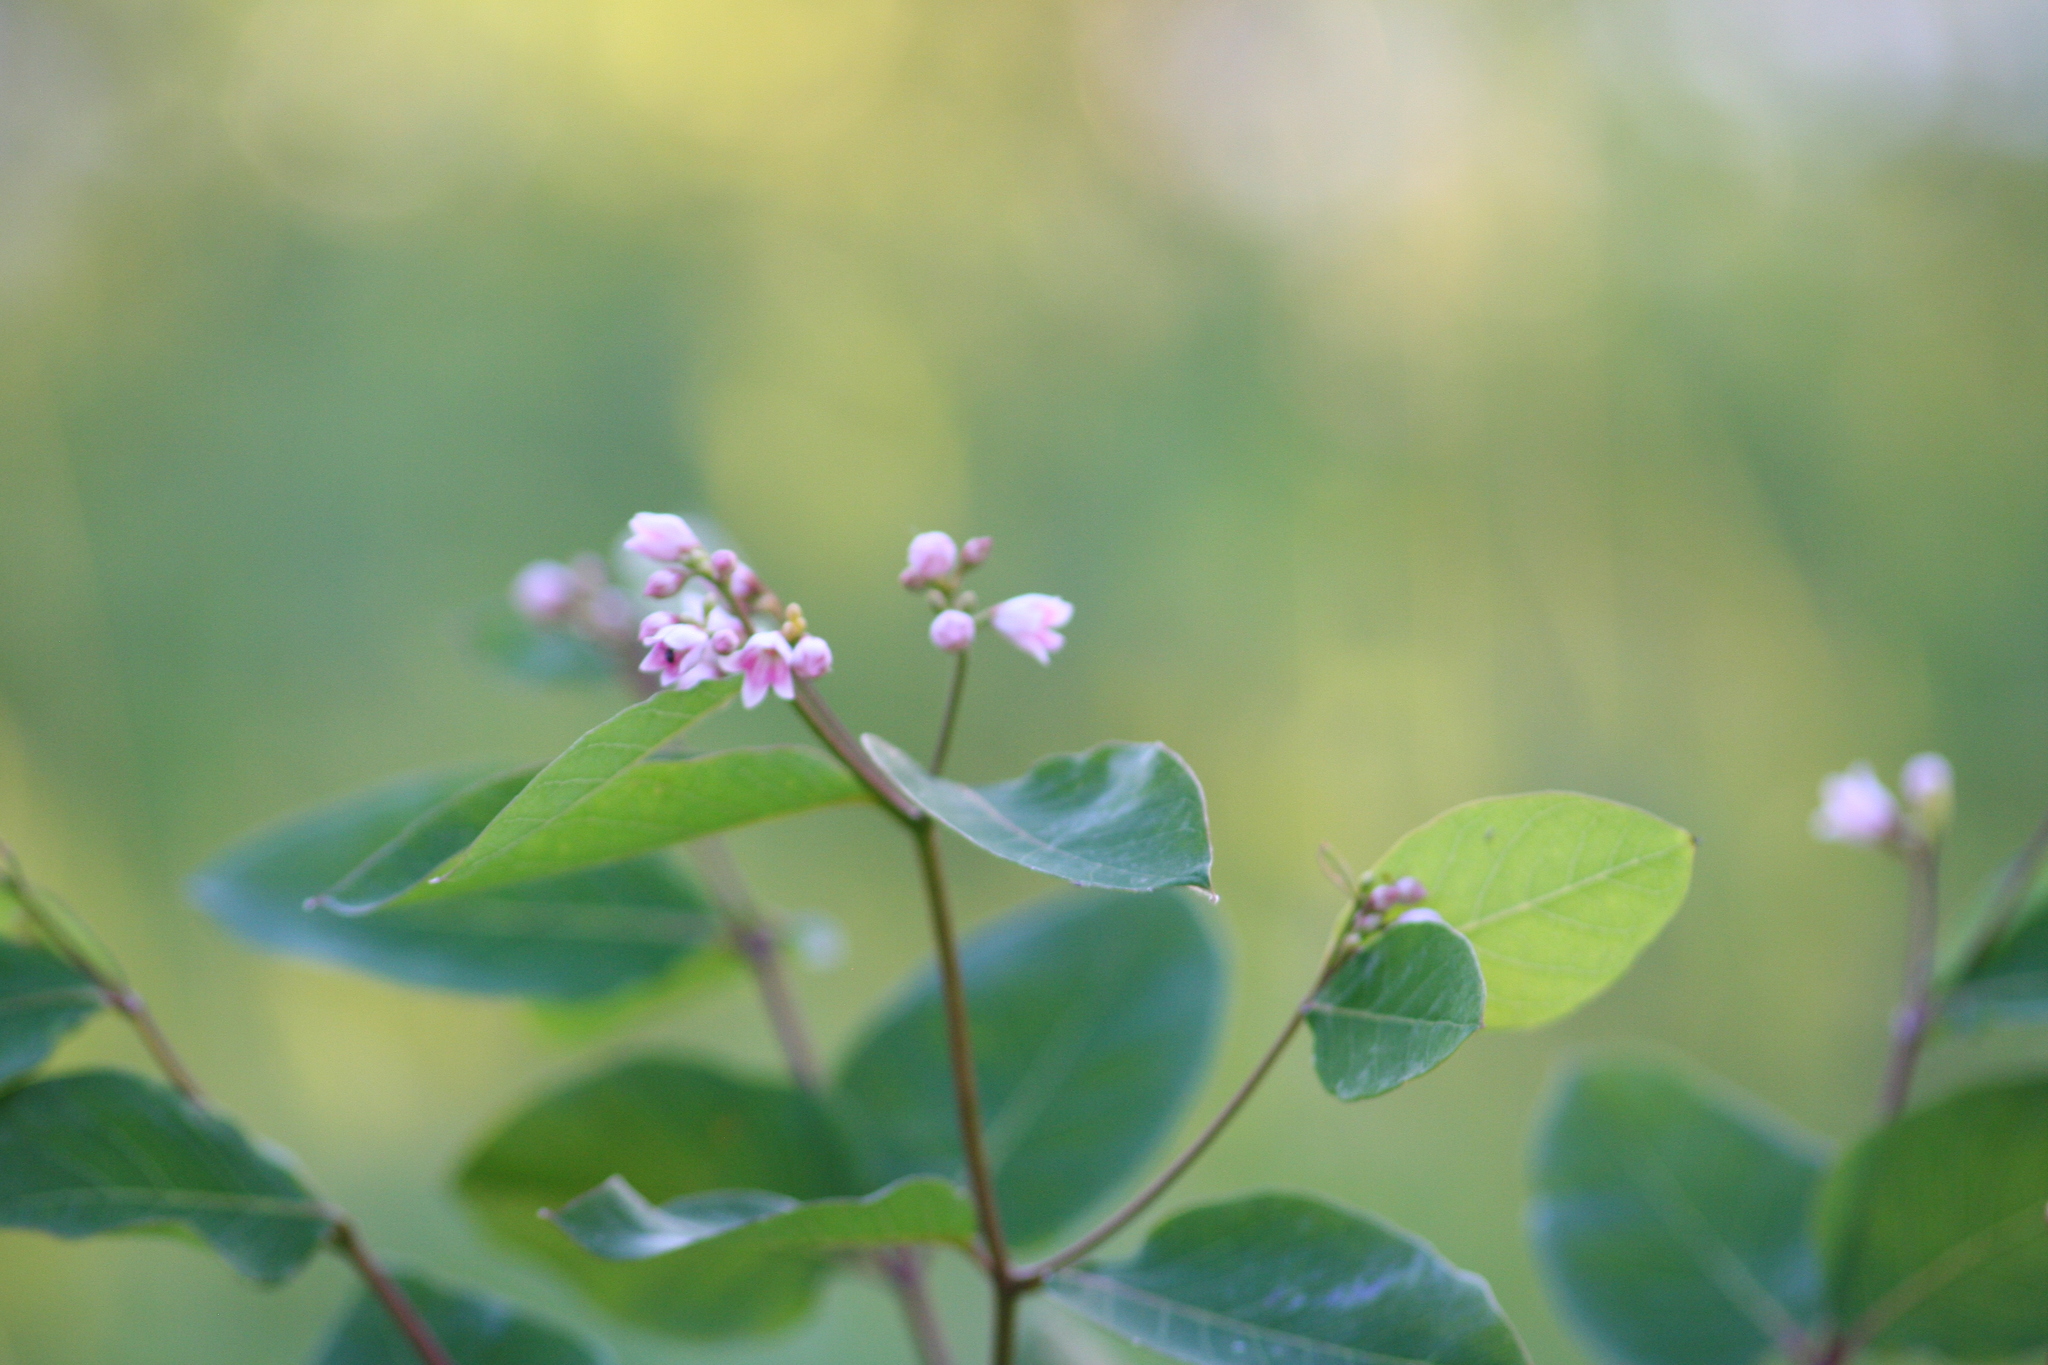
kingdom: Plantae
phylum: Tracheophyta
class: Magnoliopsida
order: Gentianales
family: Apocynaceae
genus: Apocynum
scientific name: Apocynum androsaemifolium
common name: Spreading dogbane
